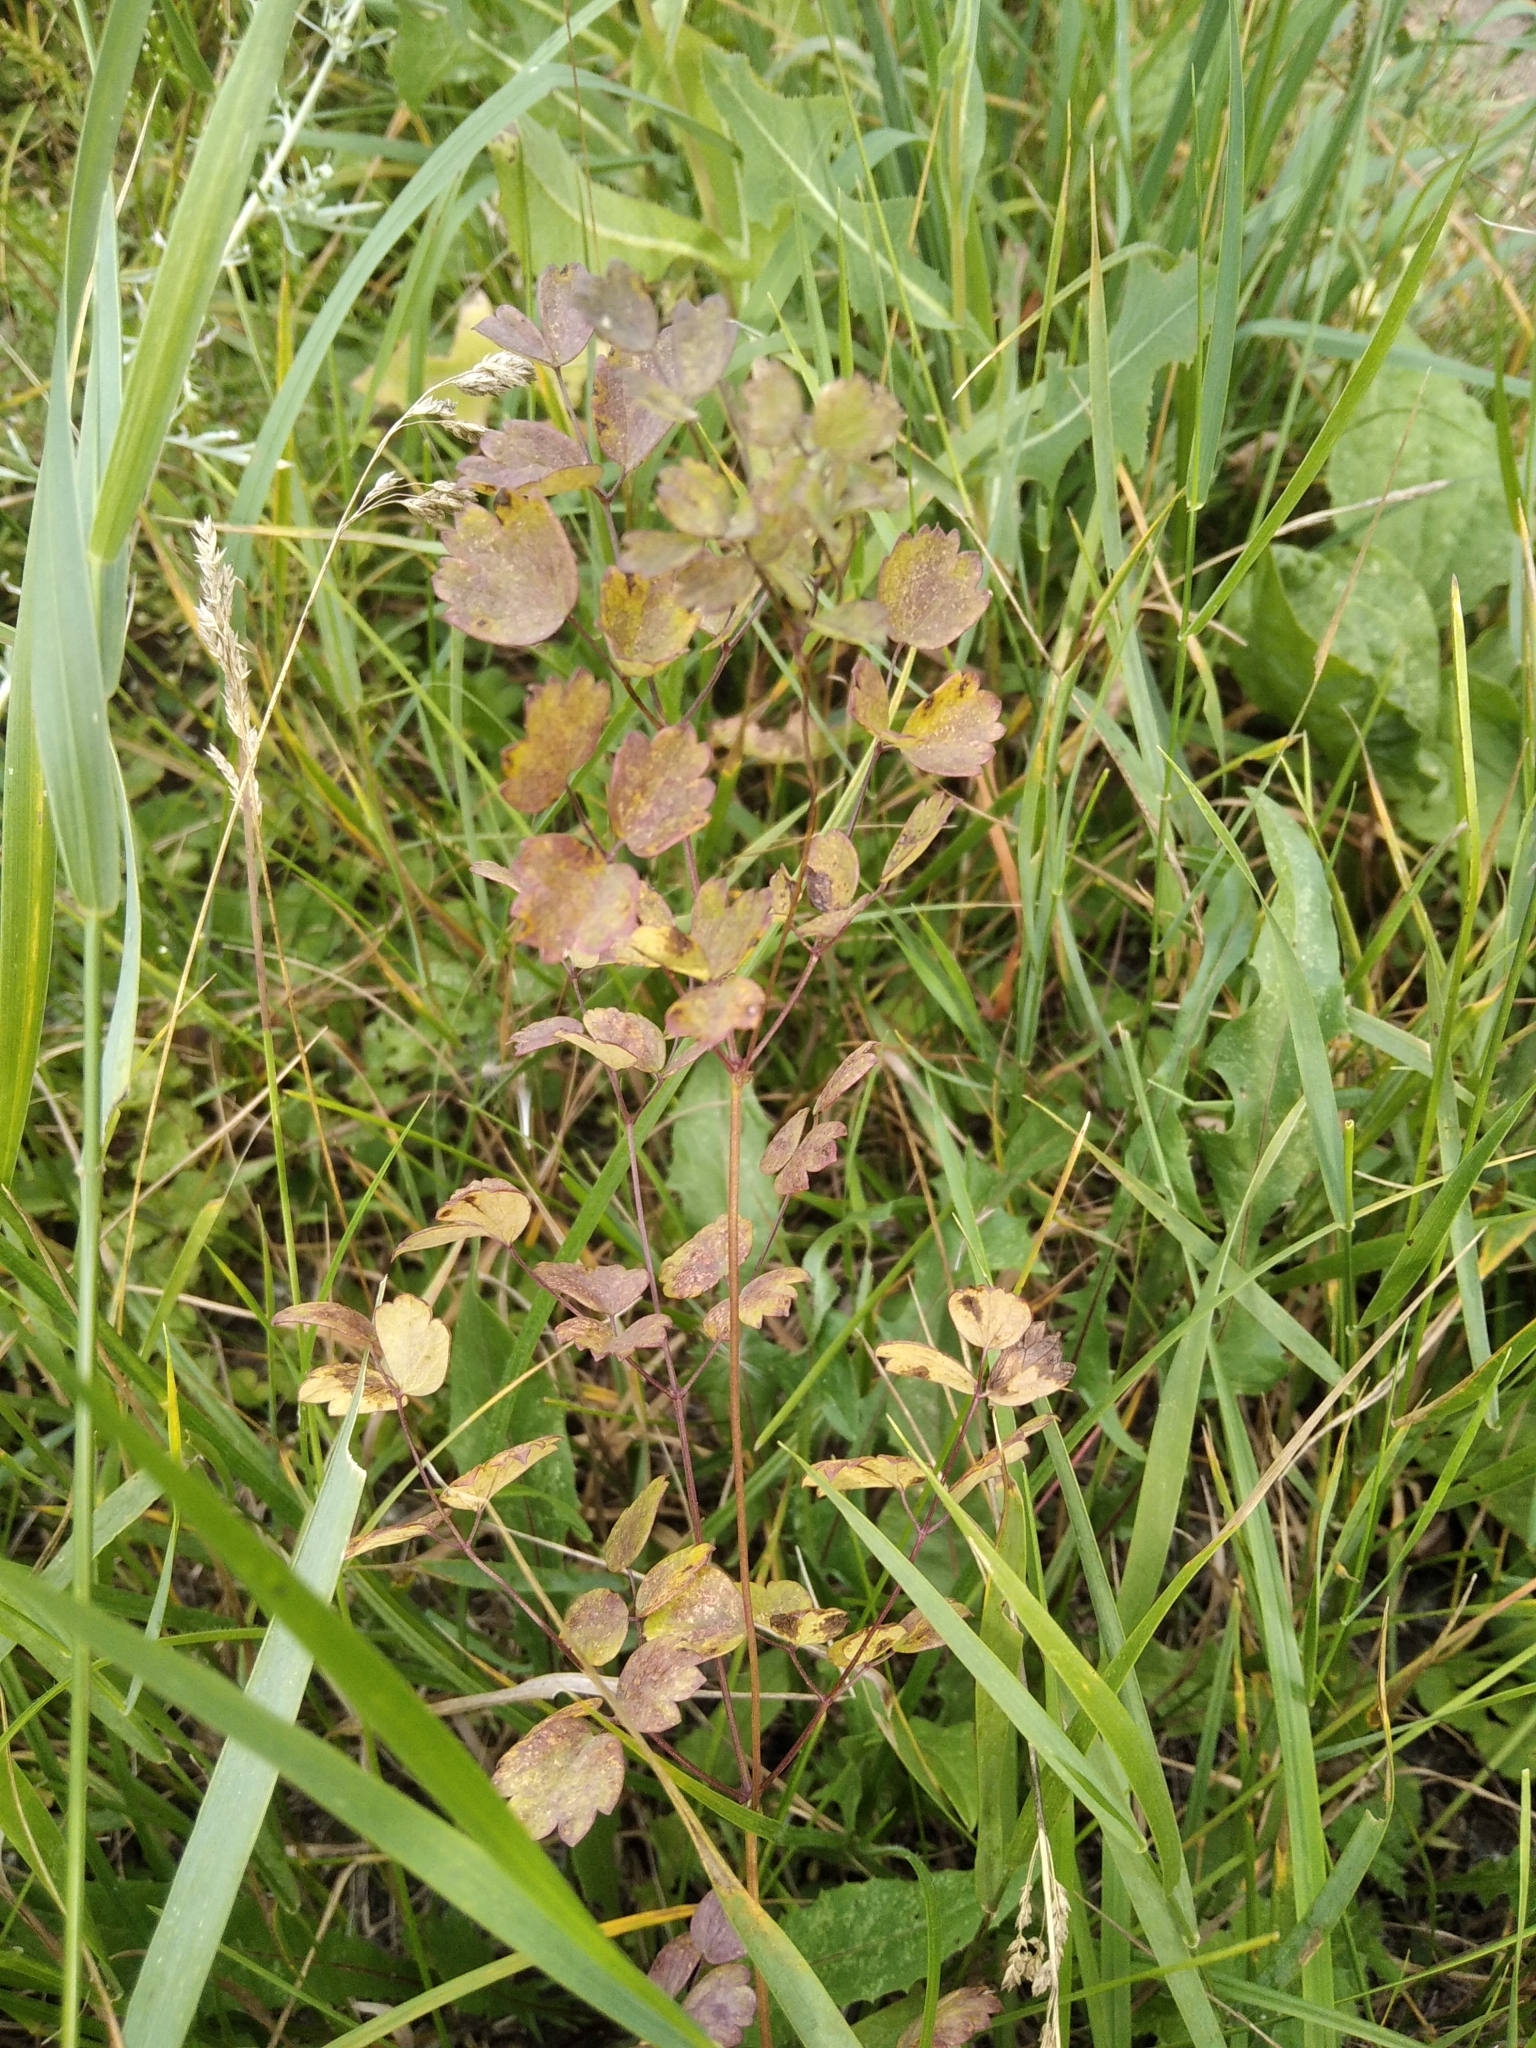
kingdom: Plantae
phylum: Tracheophyta
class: Magnoliopsida
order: Ranunculales
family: Ranunculaceae
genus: Thalictrum
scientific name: Thalictrum minus
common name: Lesser meadow-rue
